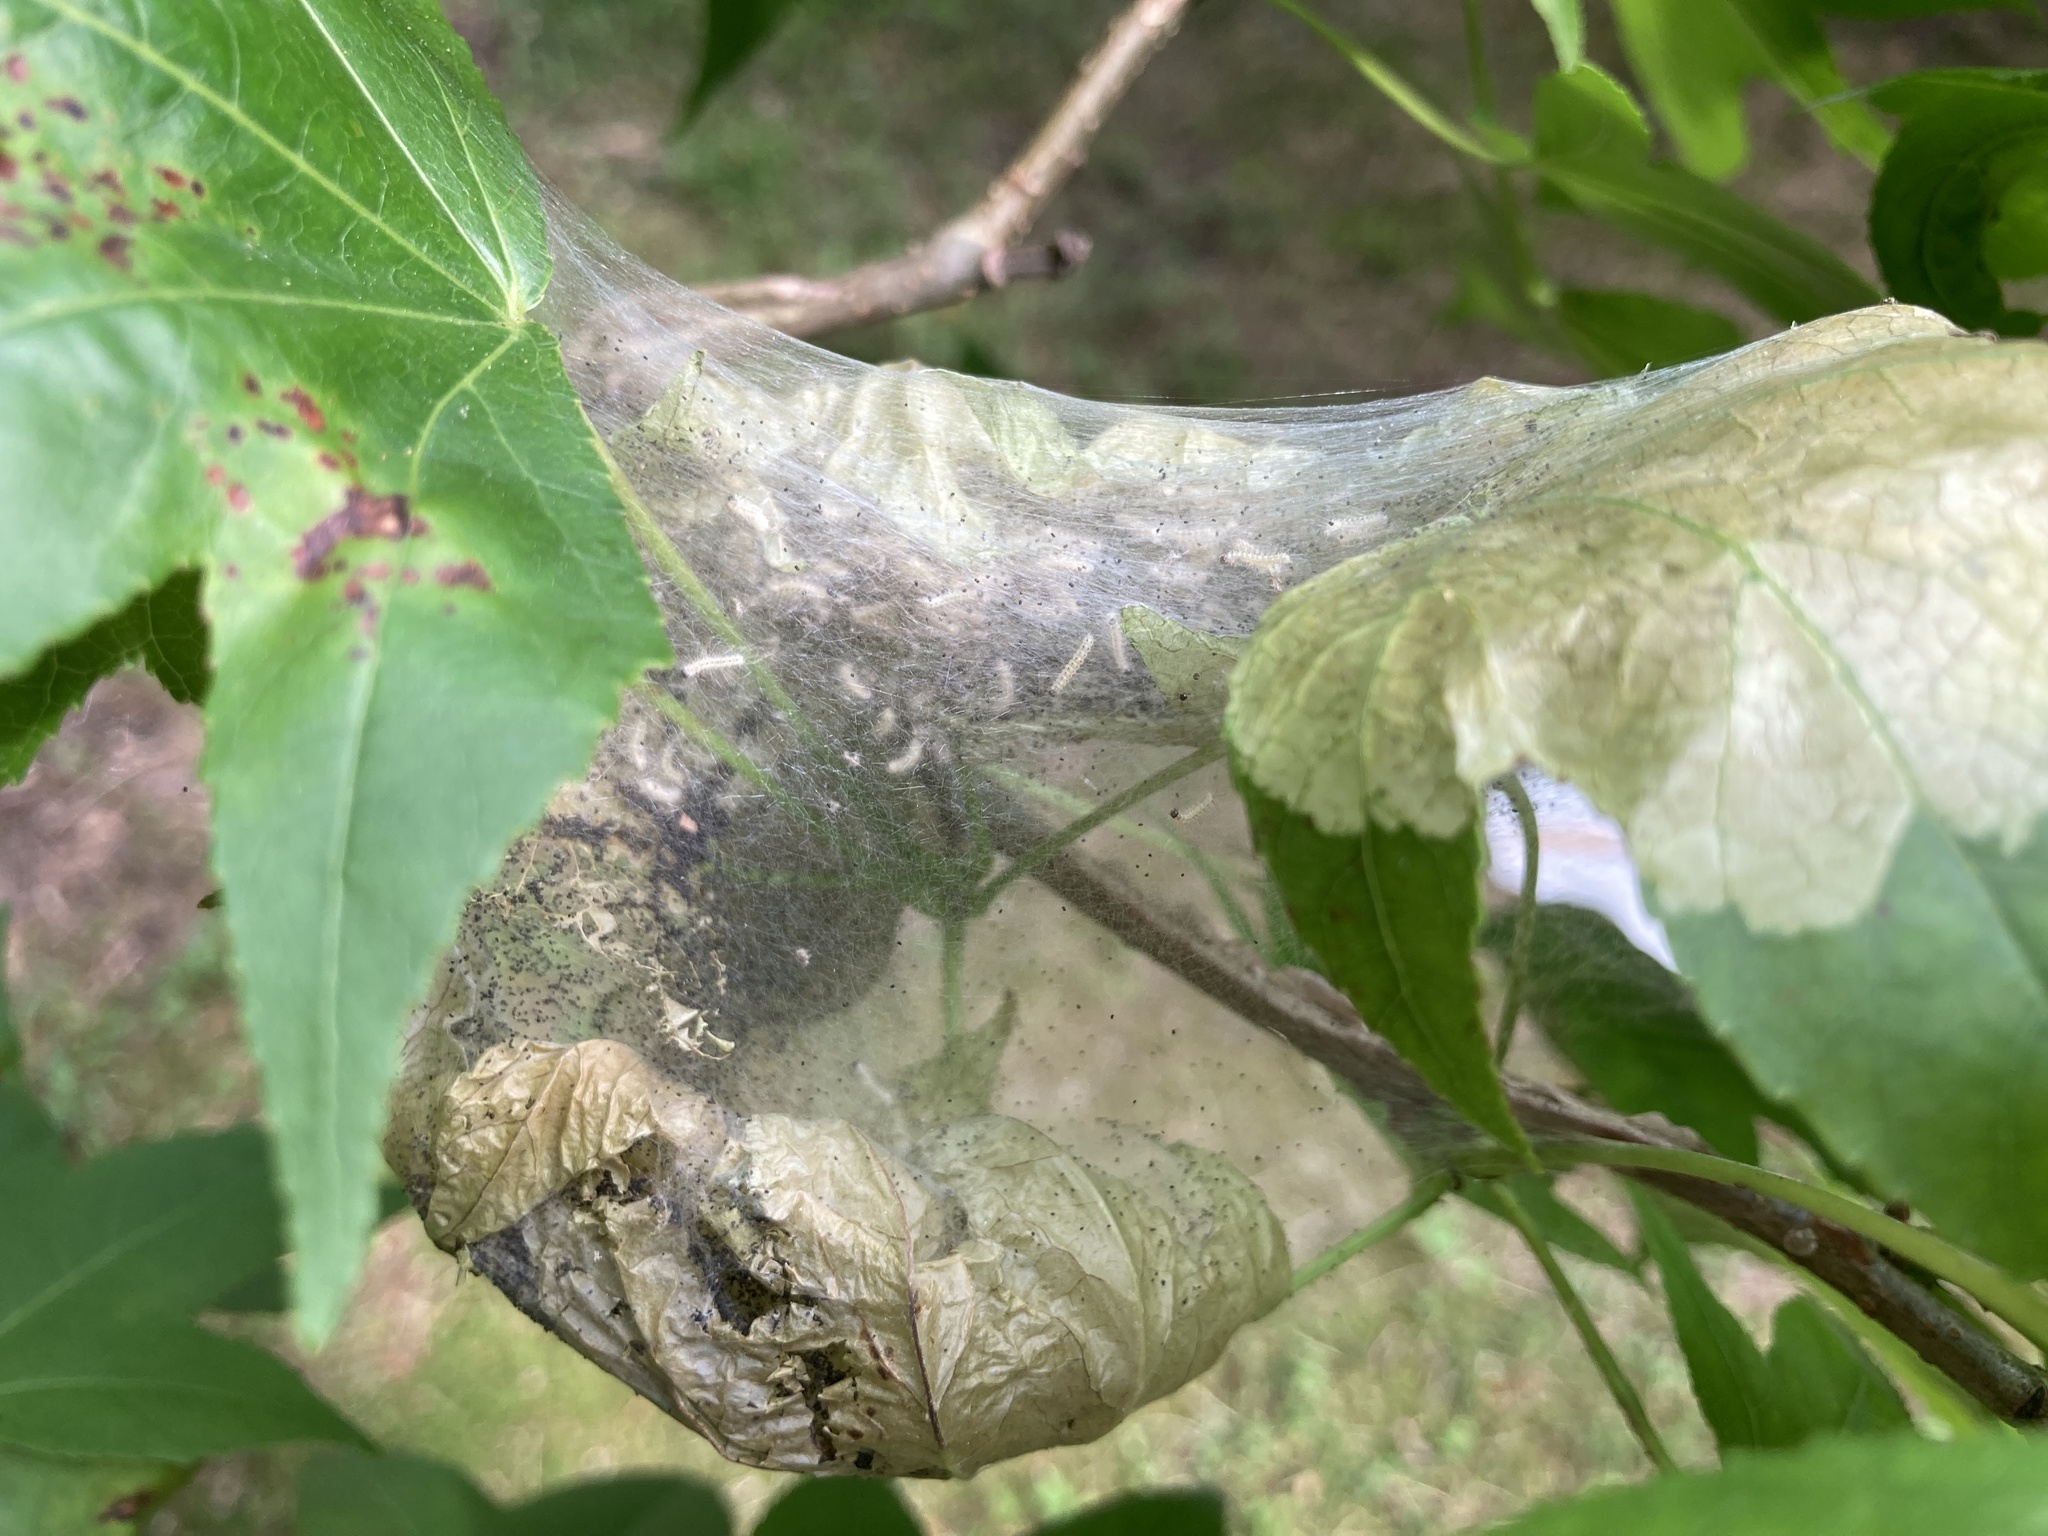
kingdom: Animalia
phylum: Arthropoda
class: Insecta
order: Lepidoptera
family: Erebidae
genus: Hyphantria
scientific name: Hyphantria cunea
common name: American white moth
